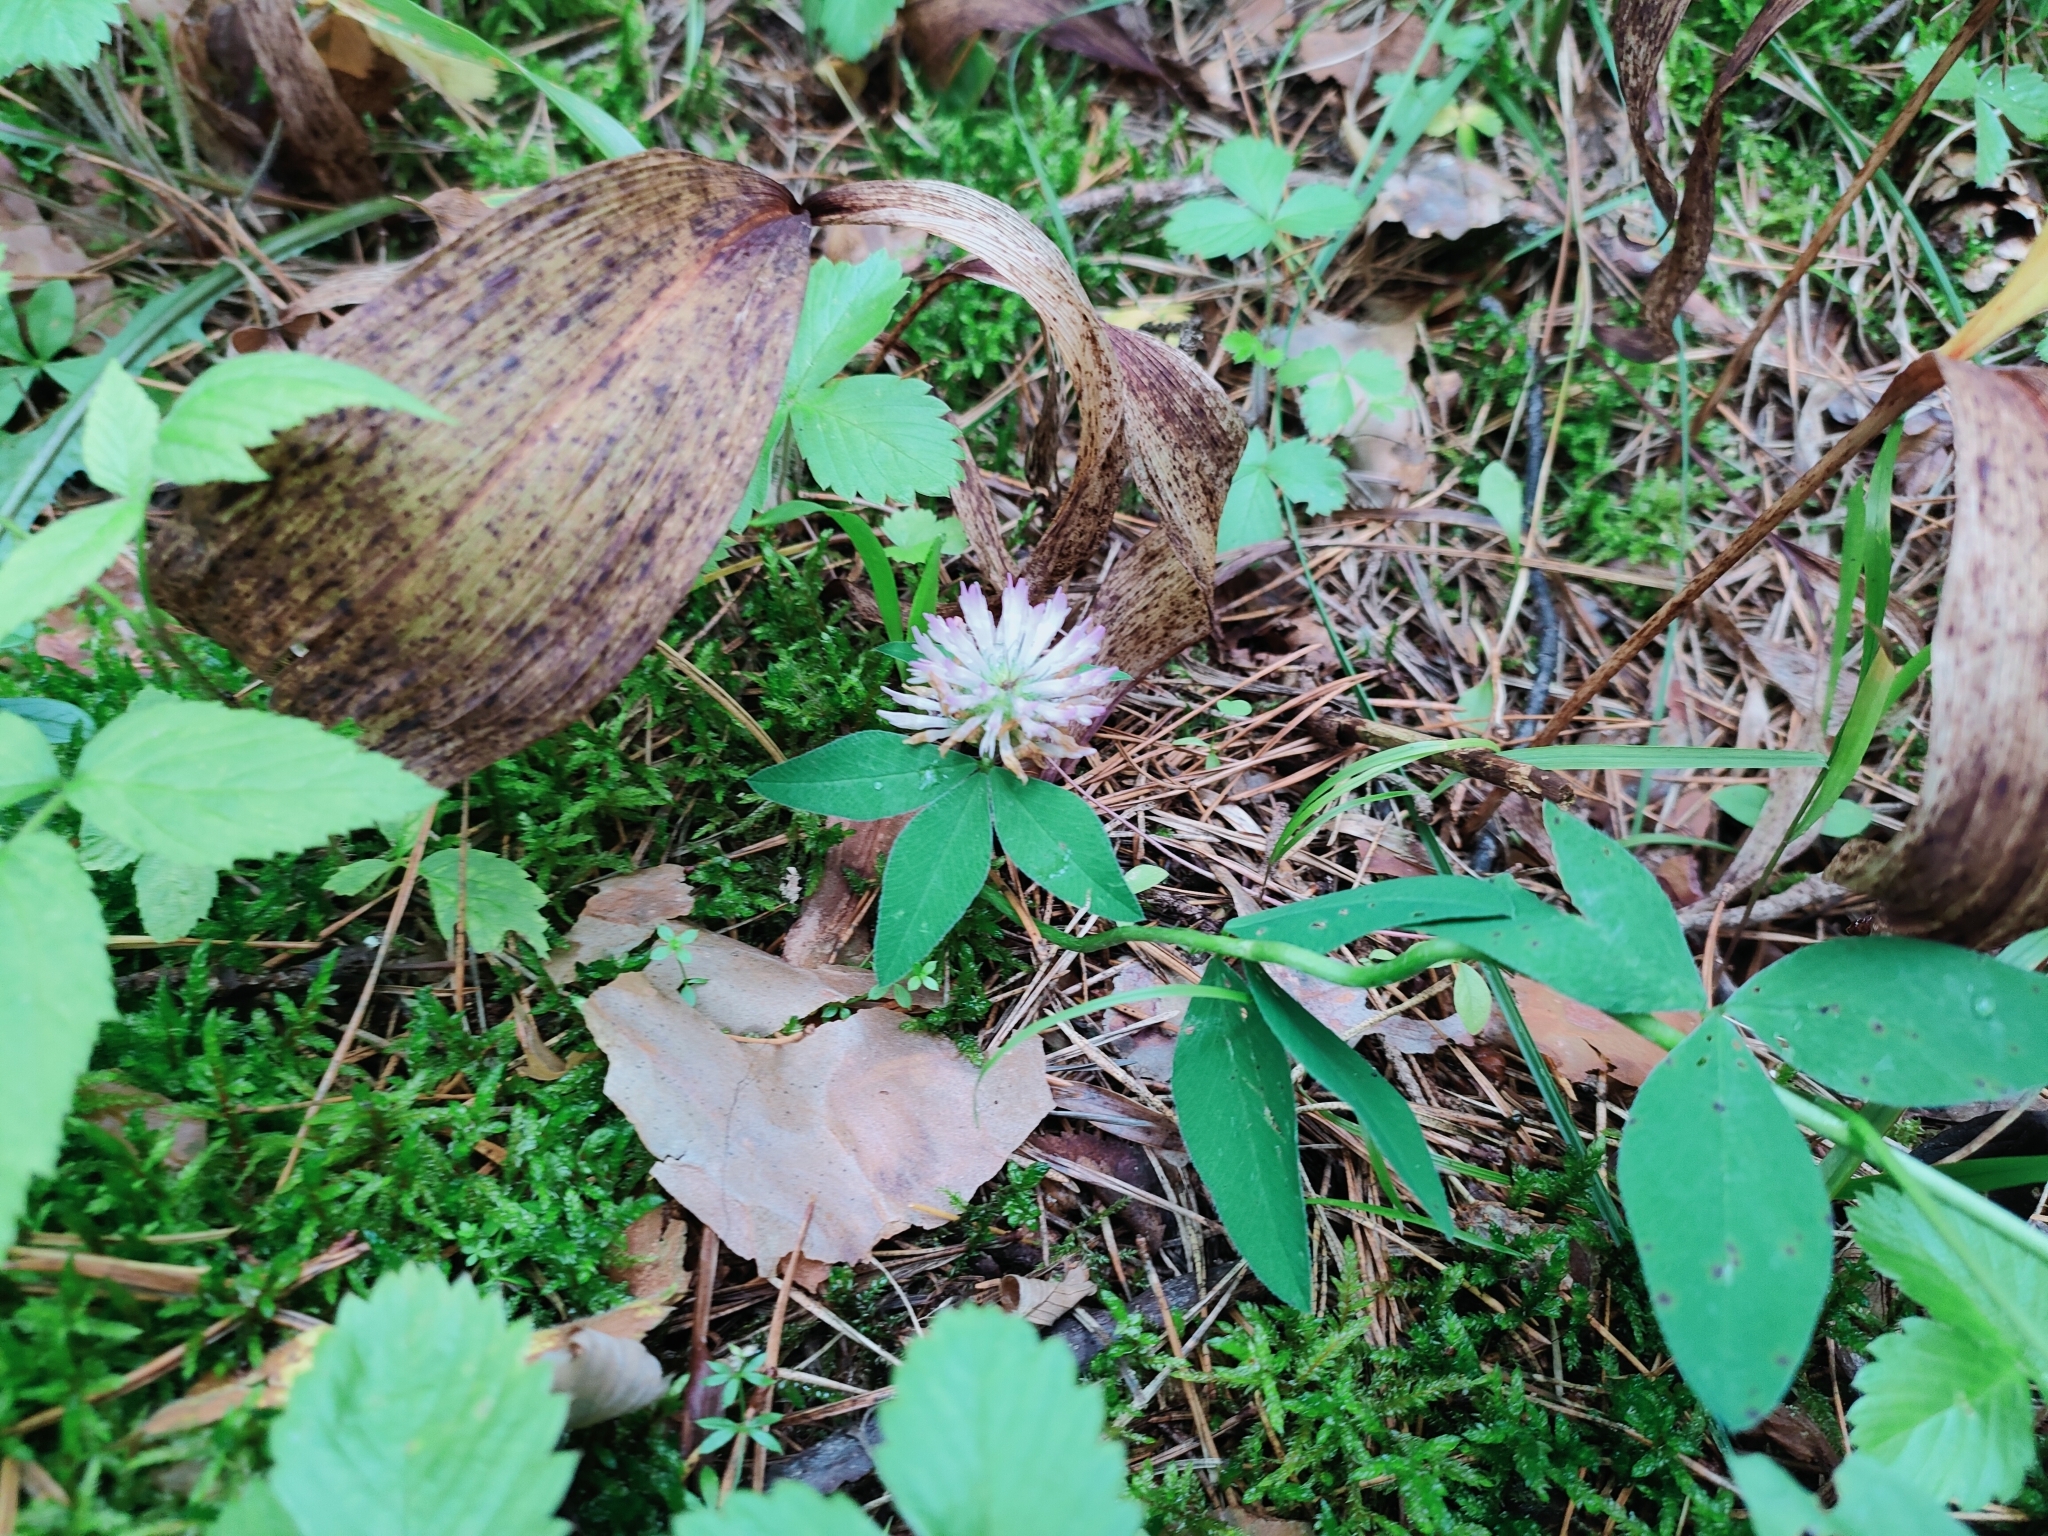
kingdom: Plantae
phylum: Tracheophyta
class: Magnoliopsida
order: Fabales
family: Fabaceae
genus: Trifolium
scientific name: Trifolium medium
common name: Zigzag clover
